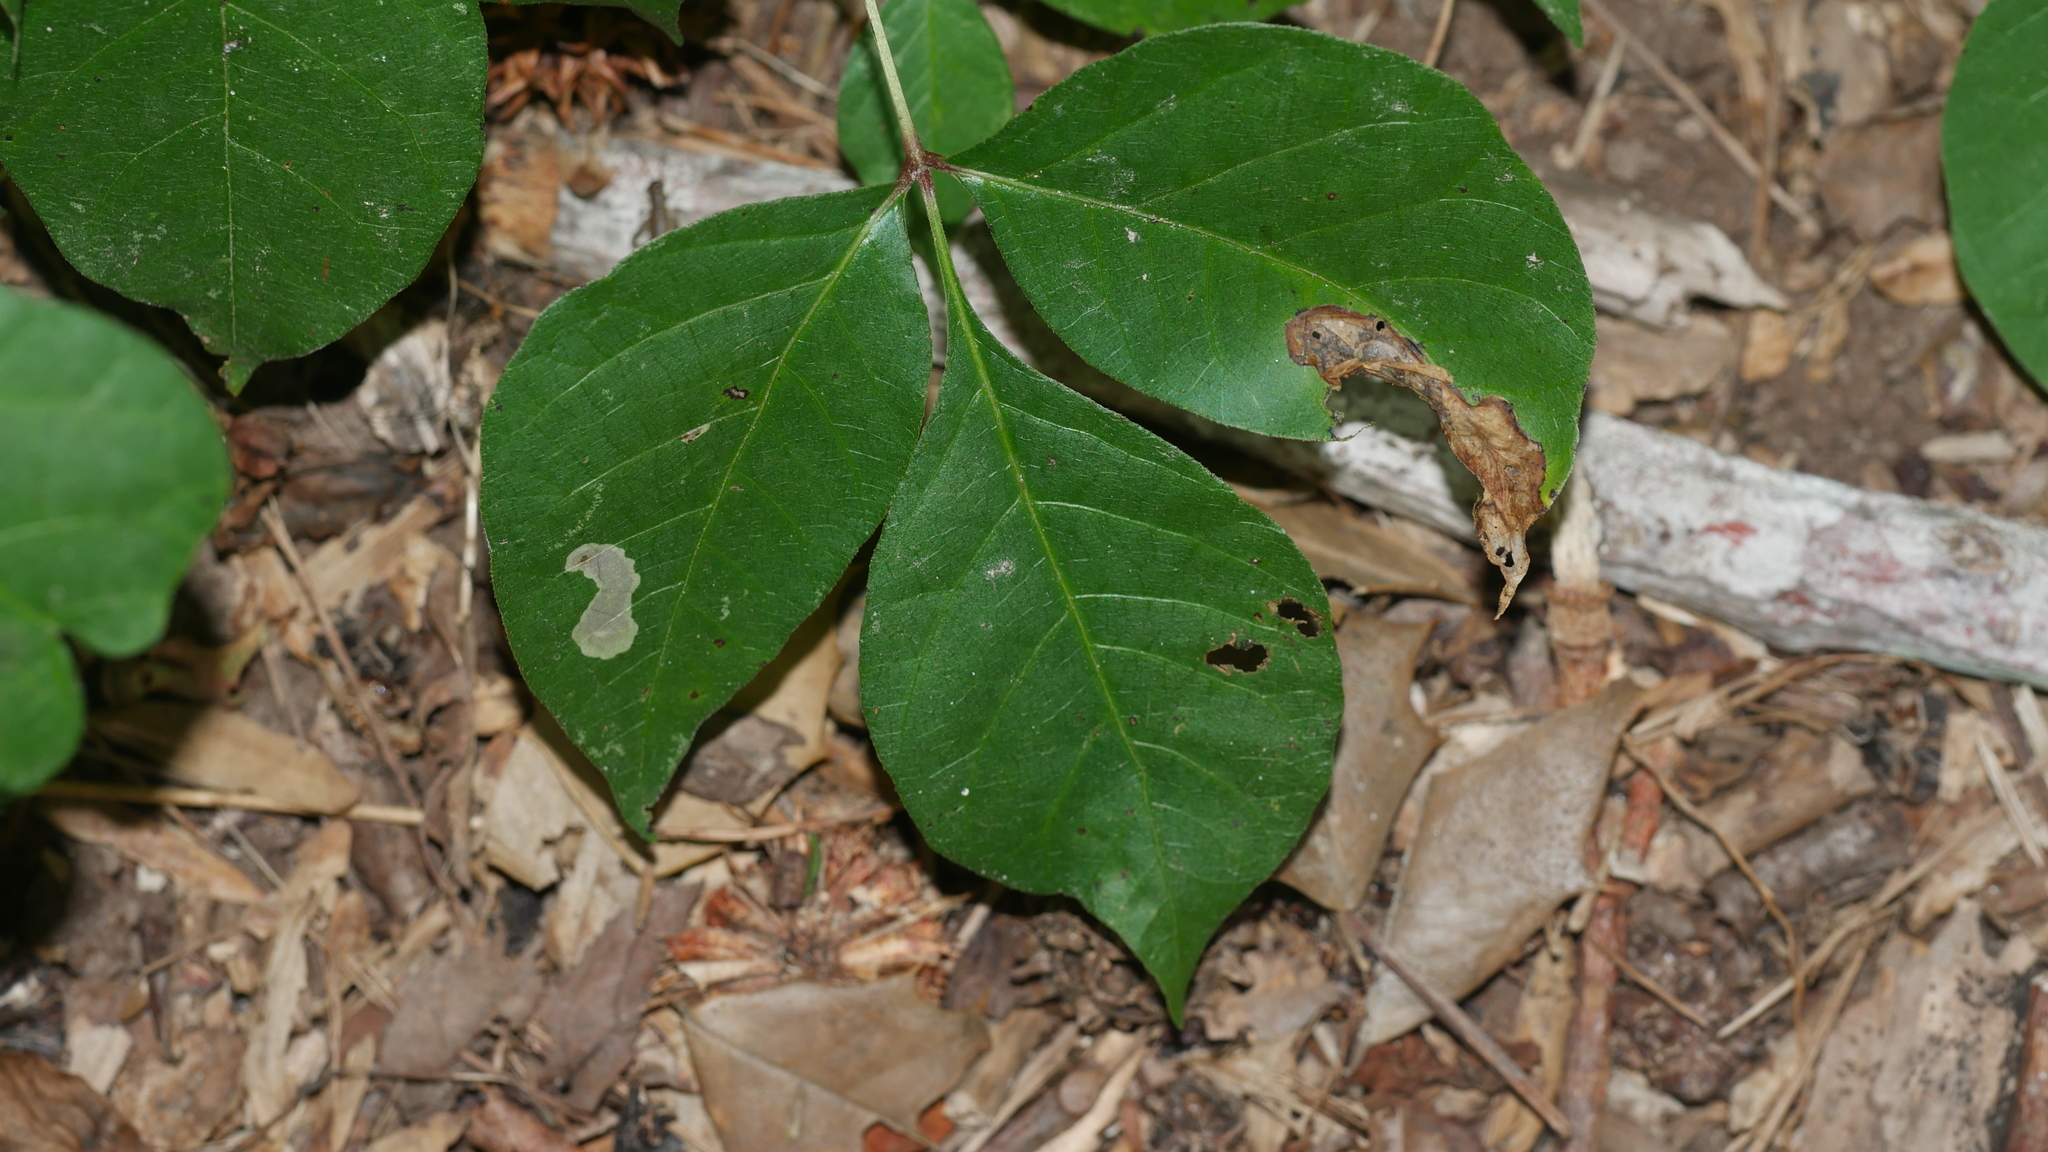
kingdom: Animalia
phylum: Arthropoda
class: Insecta
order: Lepidoptera
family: Gracillariidae
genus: Cameraria
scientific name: Cameraria guttifinitella
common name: Poison ivy leaf-miner moth
